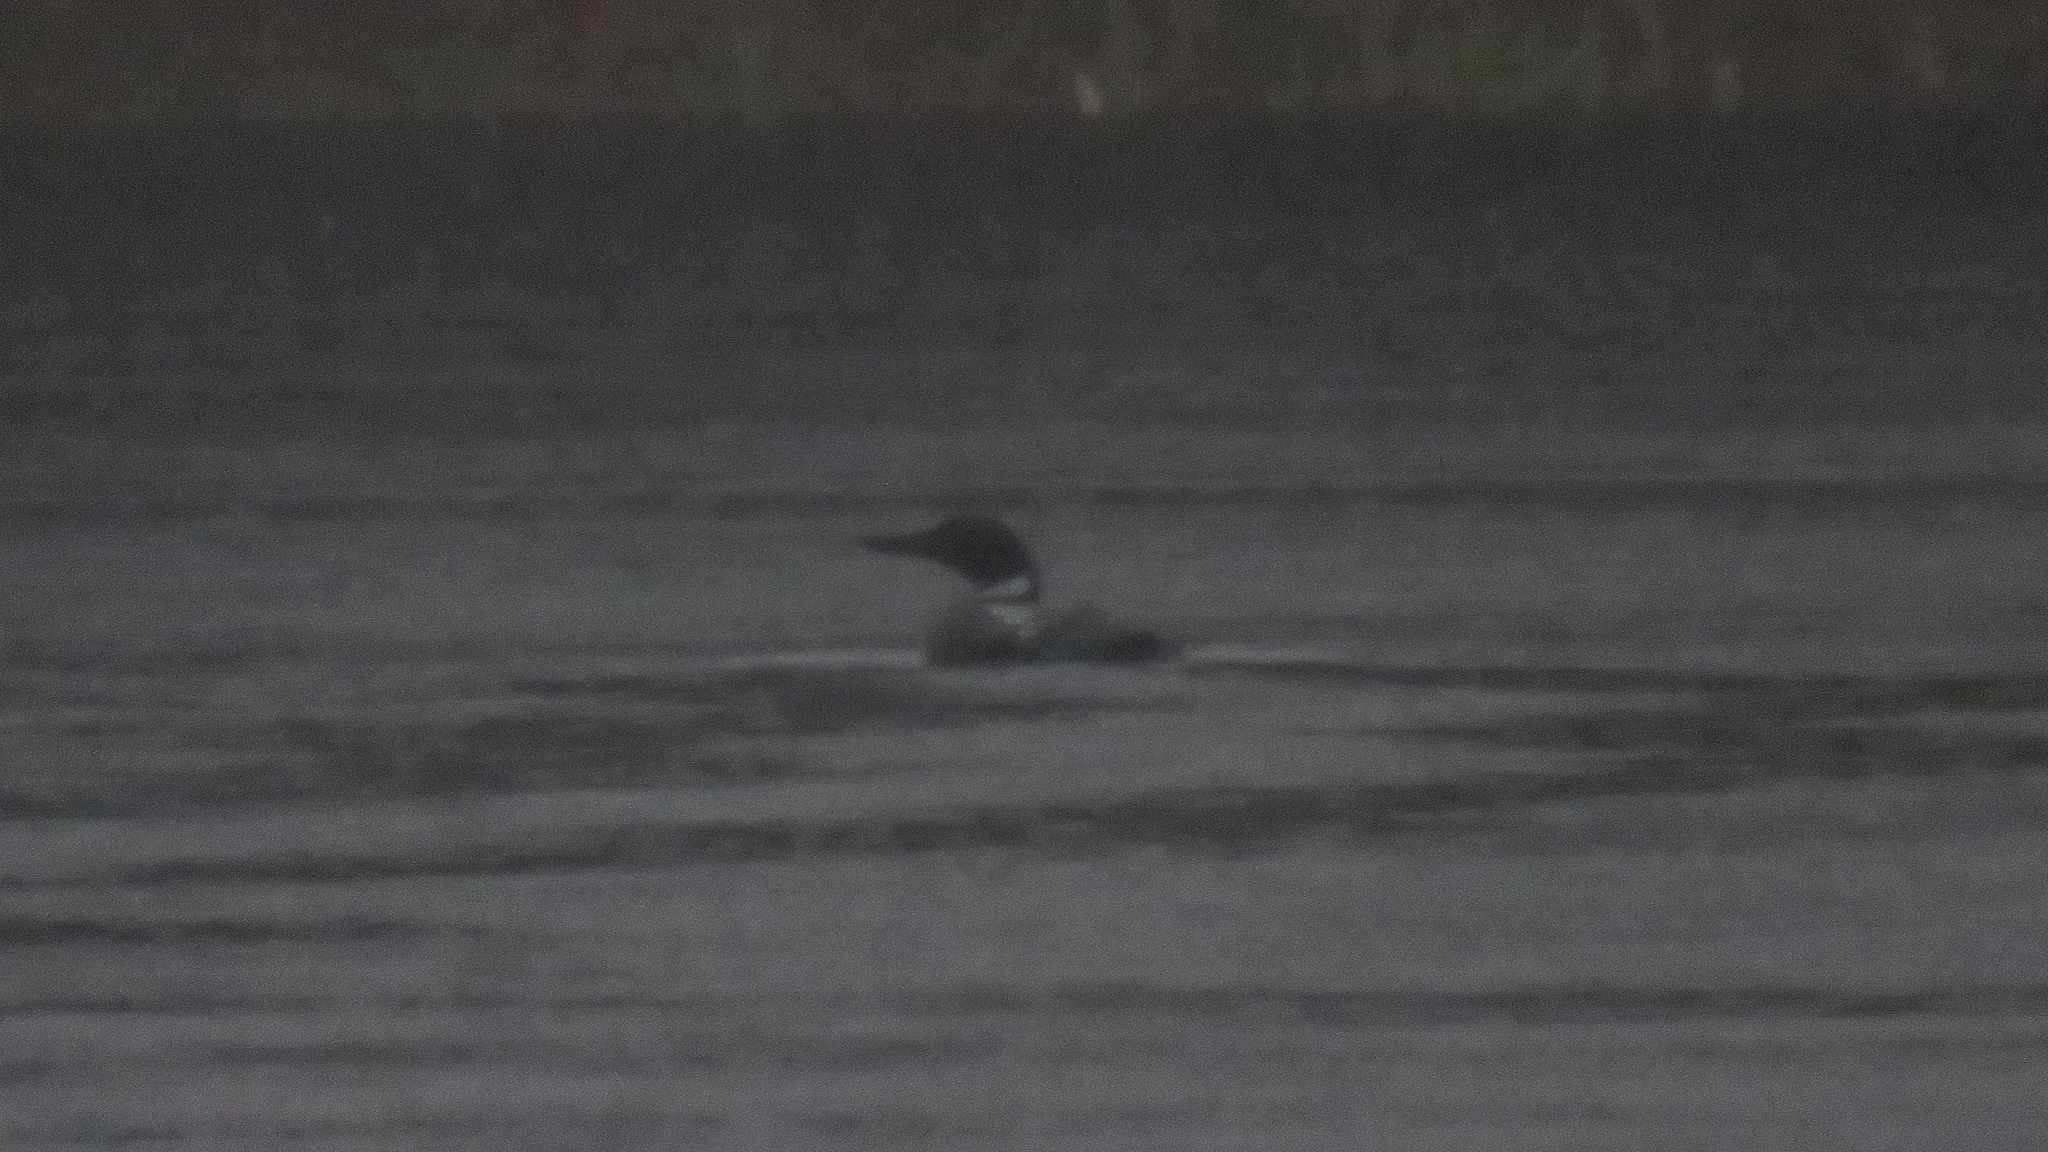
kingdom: Animalia
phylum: Chordata
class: Aves
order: Gaviiformes
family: Gaviidae
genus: Gavia
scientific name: Gavia immer
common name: Common loon
